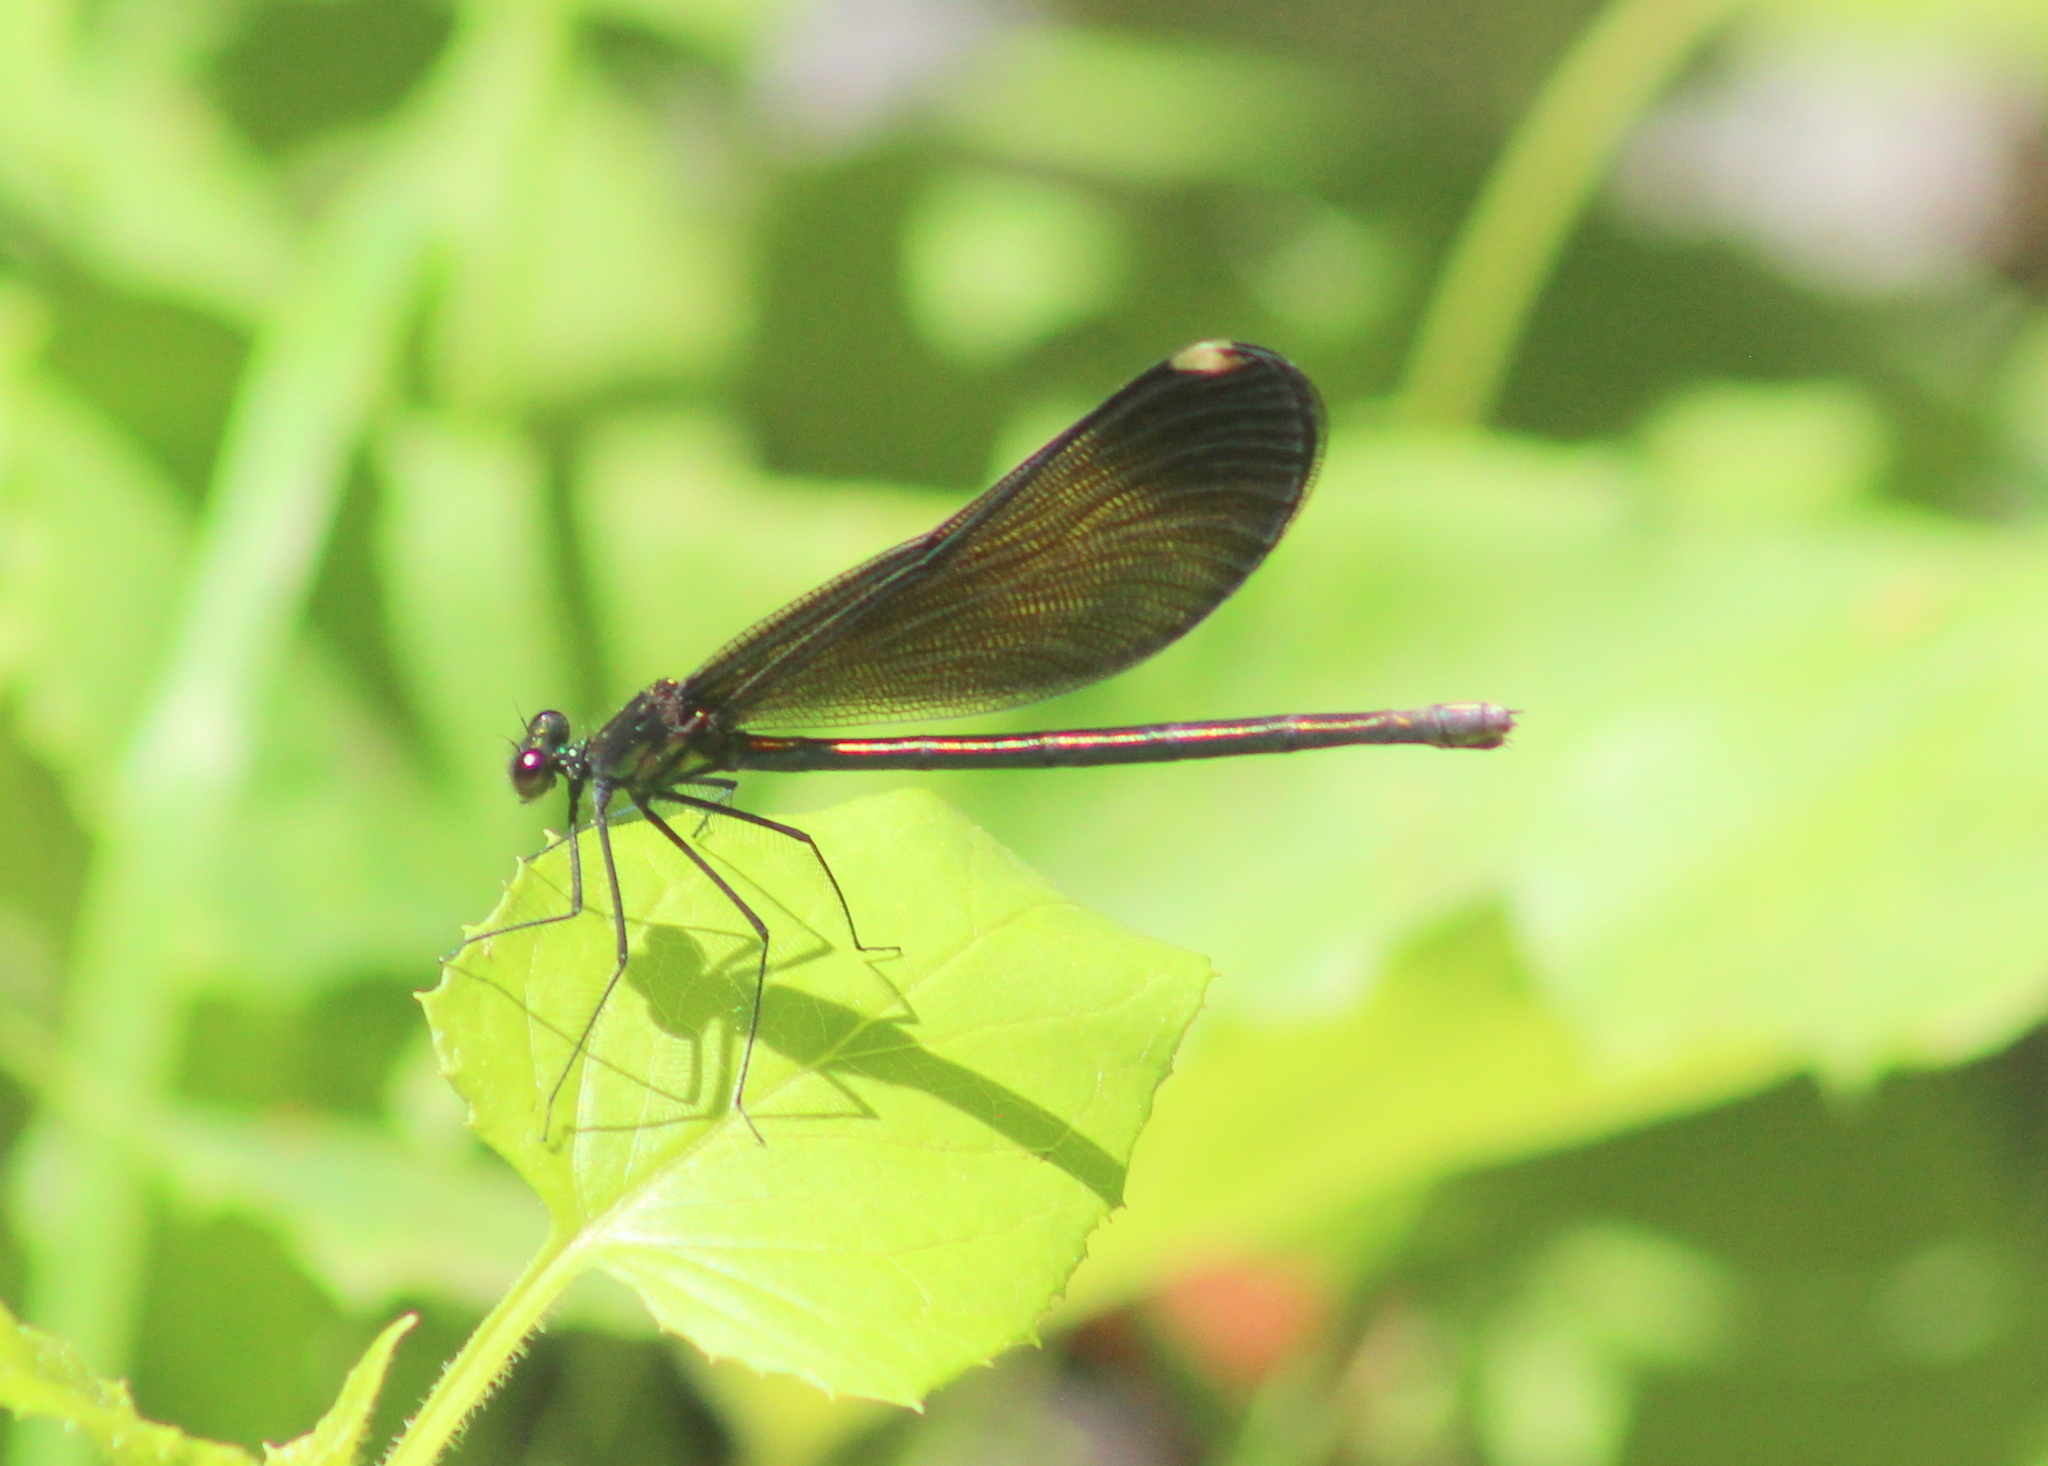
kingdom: Animalia
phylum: Arthropoda
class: Insecta
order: Odonata
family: Calopterygidae
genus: Calopteryx
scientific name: Calopteryx maculata
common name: Ebony jewelwing
